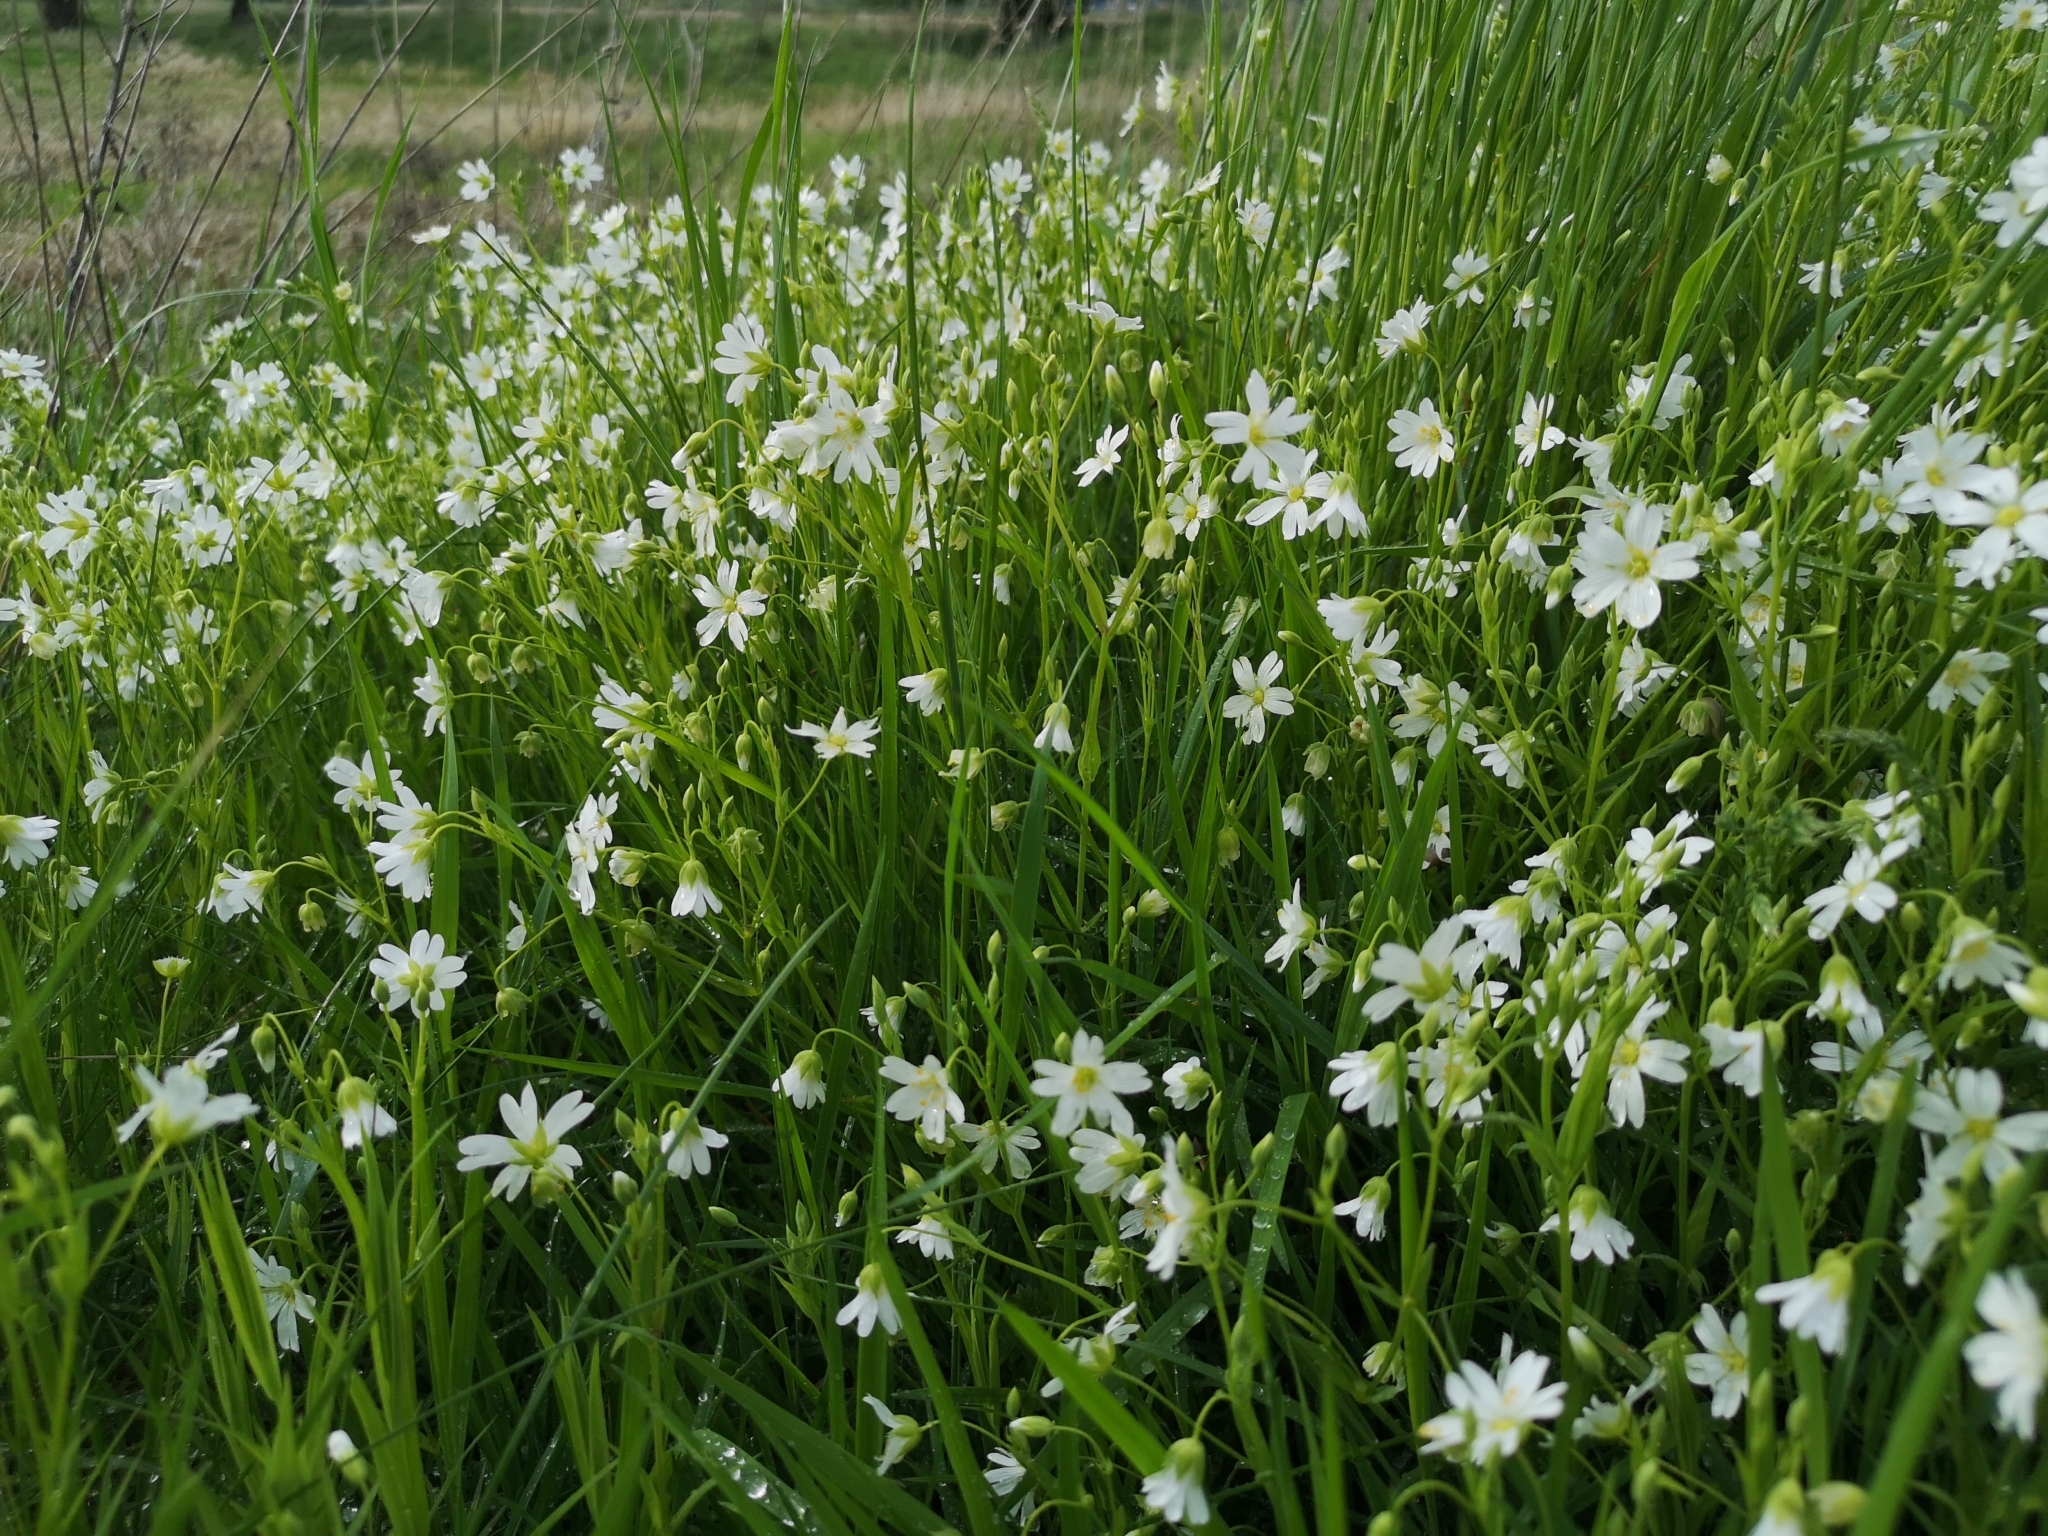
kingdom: Plantae
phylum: Tracheophyta
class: Magnoliopsida
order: Caryophyllales
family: Caryophyllaceae
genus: Rabelera
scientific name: Rabelera holostea
